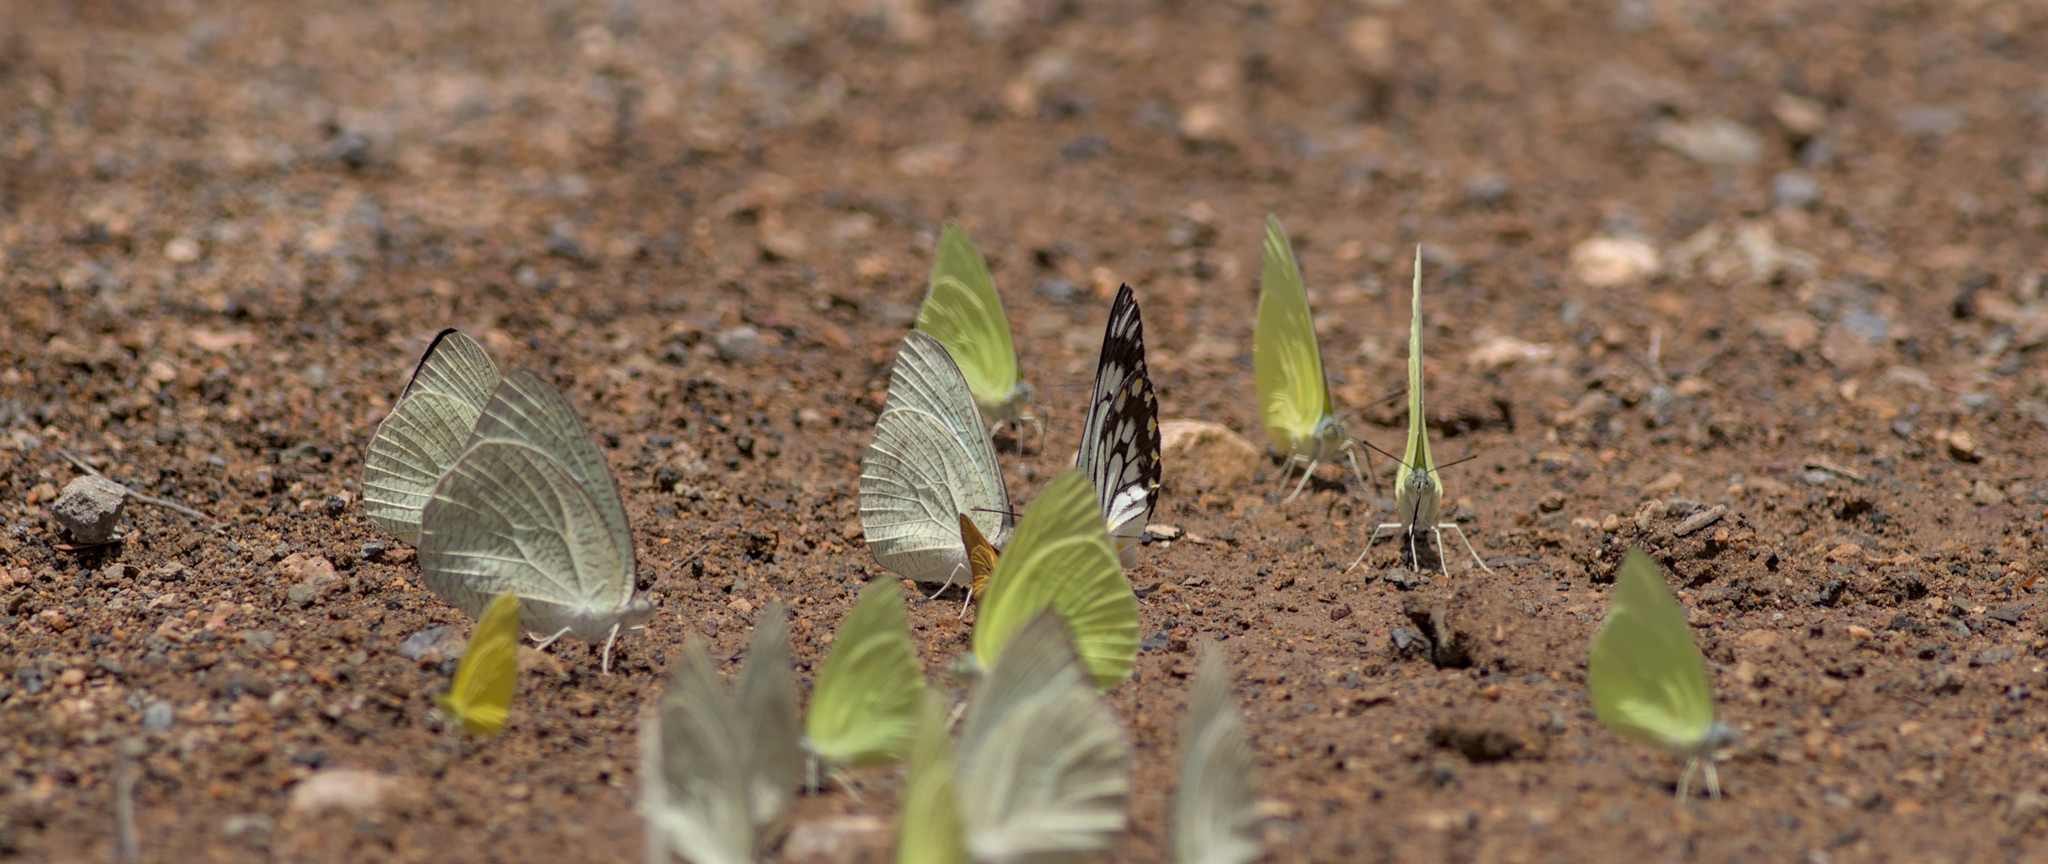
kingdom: Animalia
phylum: Arthropoda
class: Insecta
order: Lepidoptera
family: Pieridae
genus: Catopsilia
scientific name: Catopsilia pomona
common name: Common emigrant
